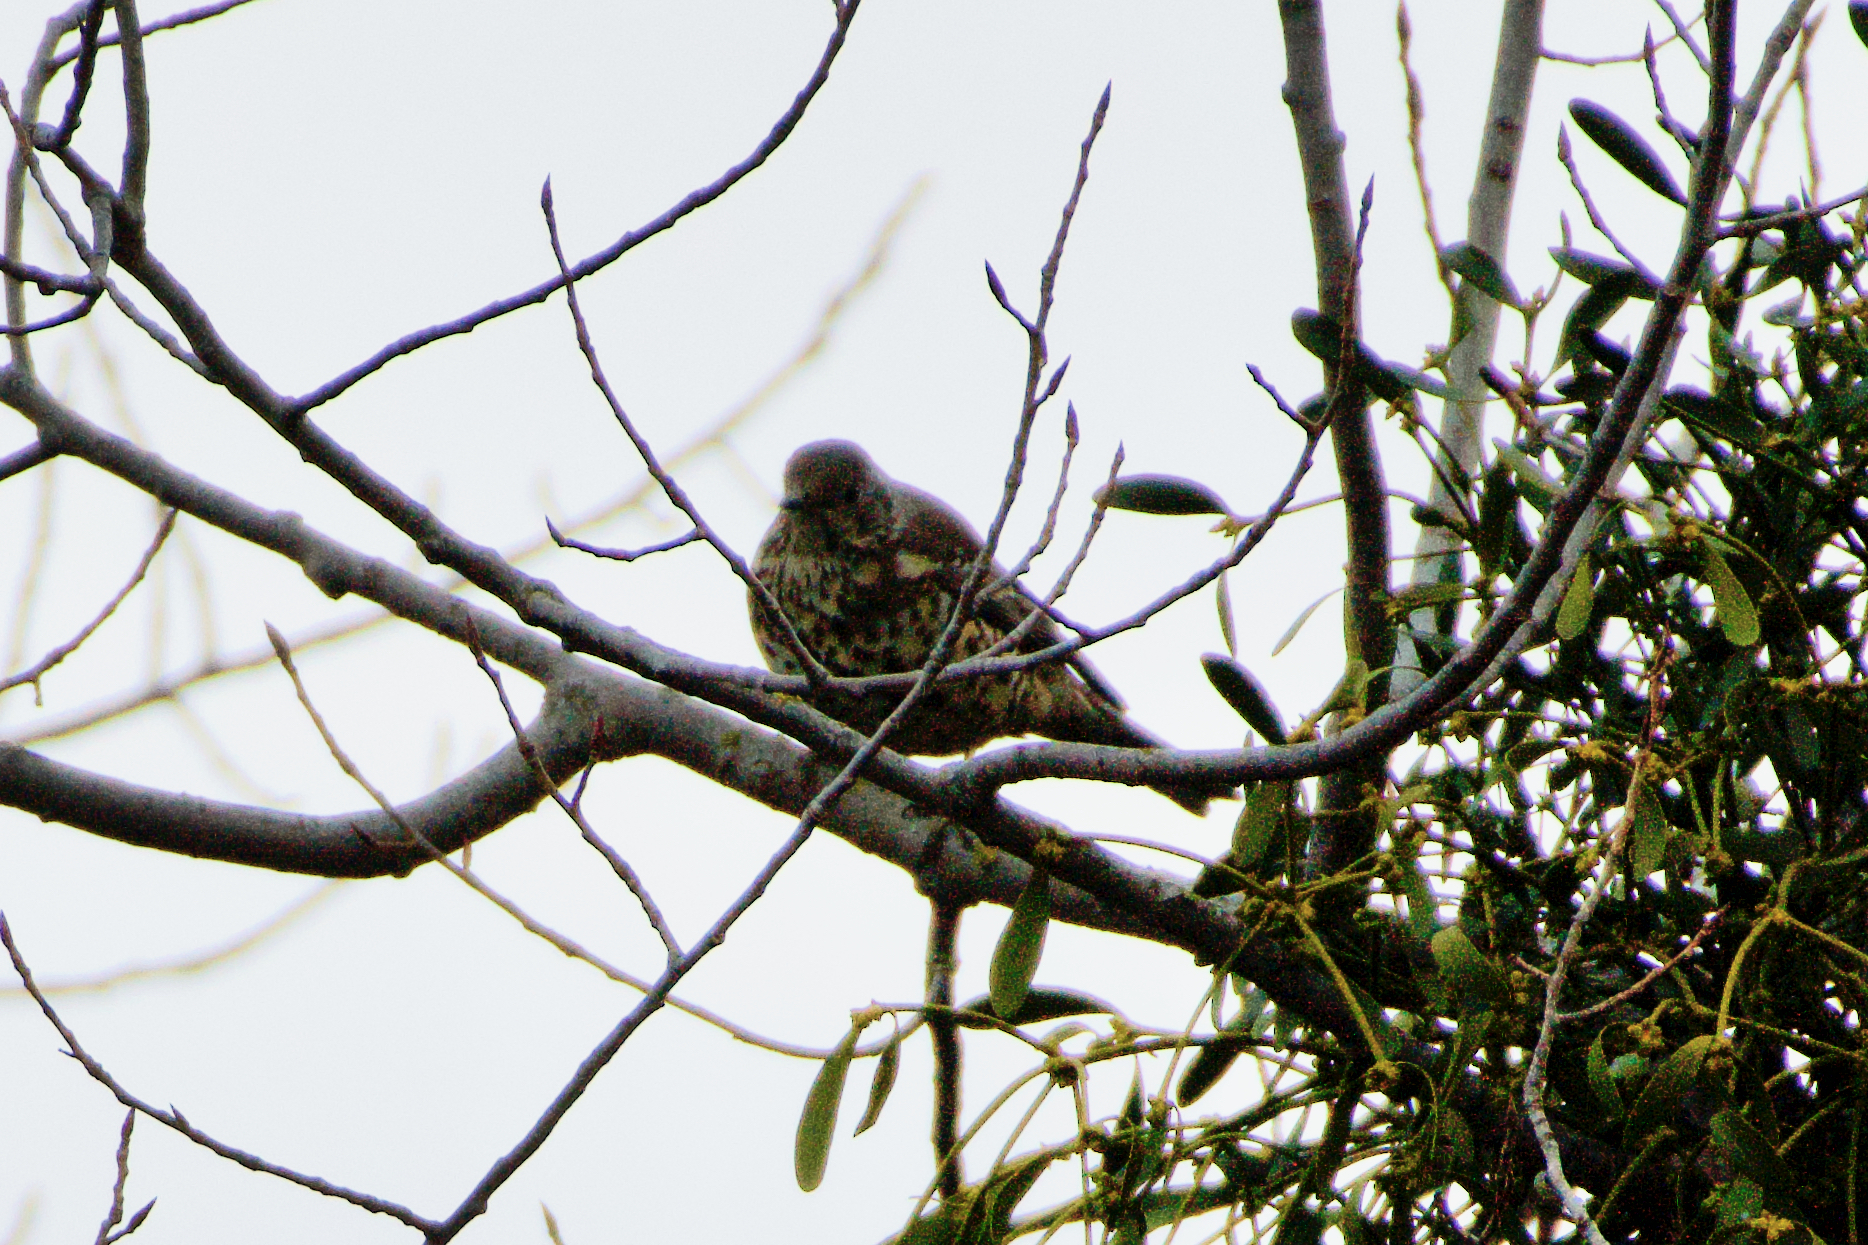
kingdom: Animalia
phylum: Chordata
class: Aves
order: Passeriformes
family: Turdidae
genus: Turdus
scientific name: Turdus viscivorus
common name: Mistle thrush
